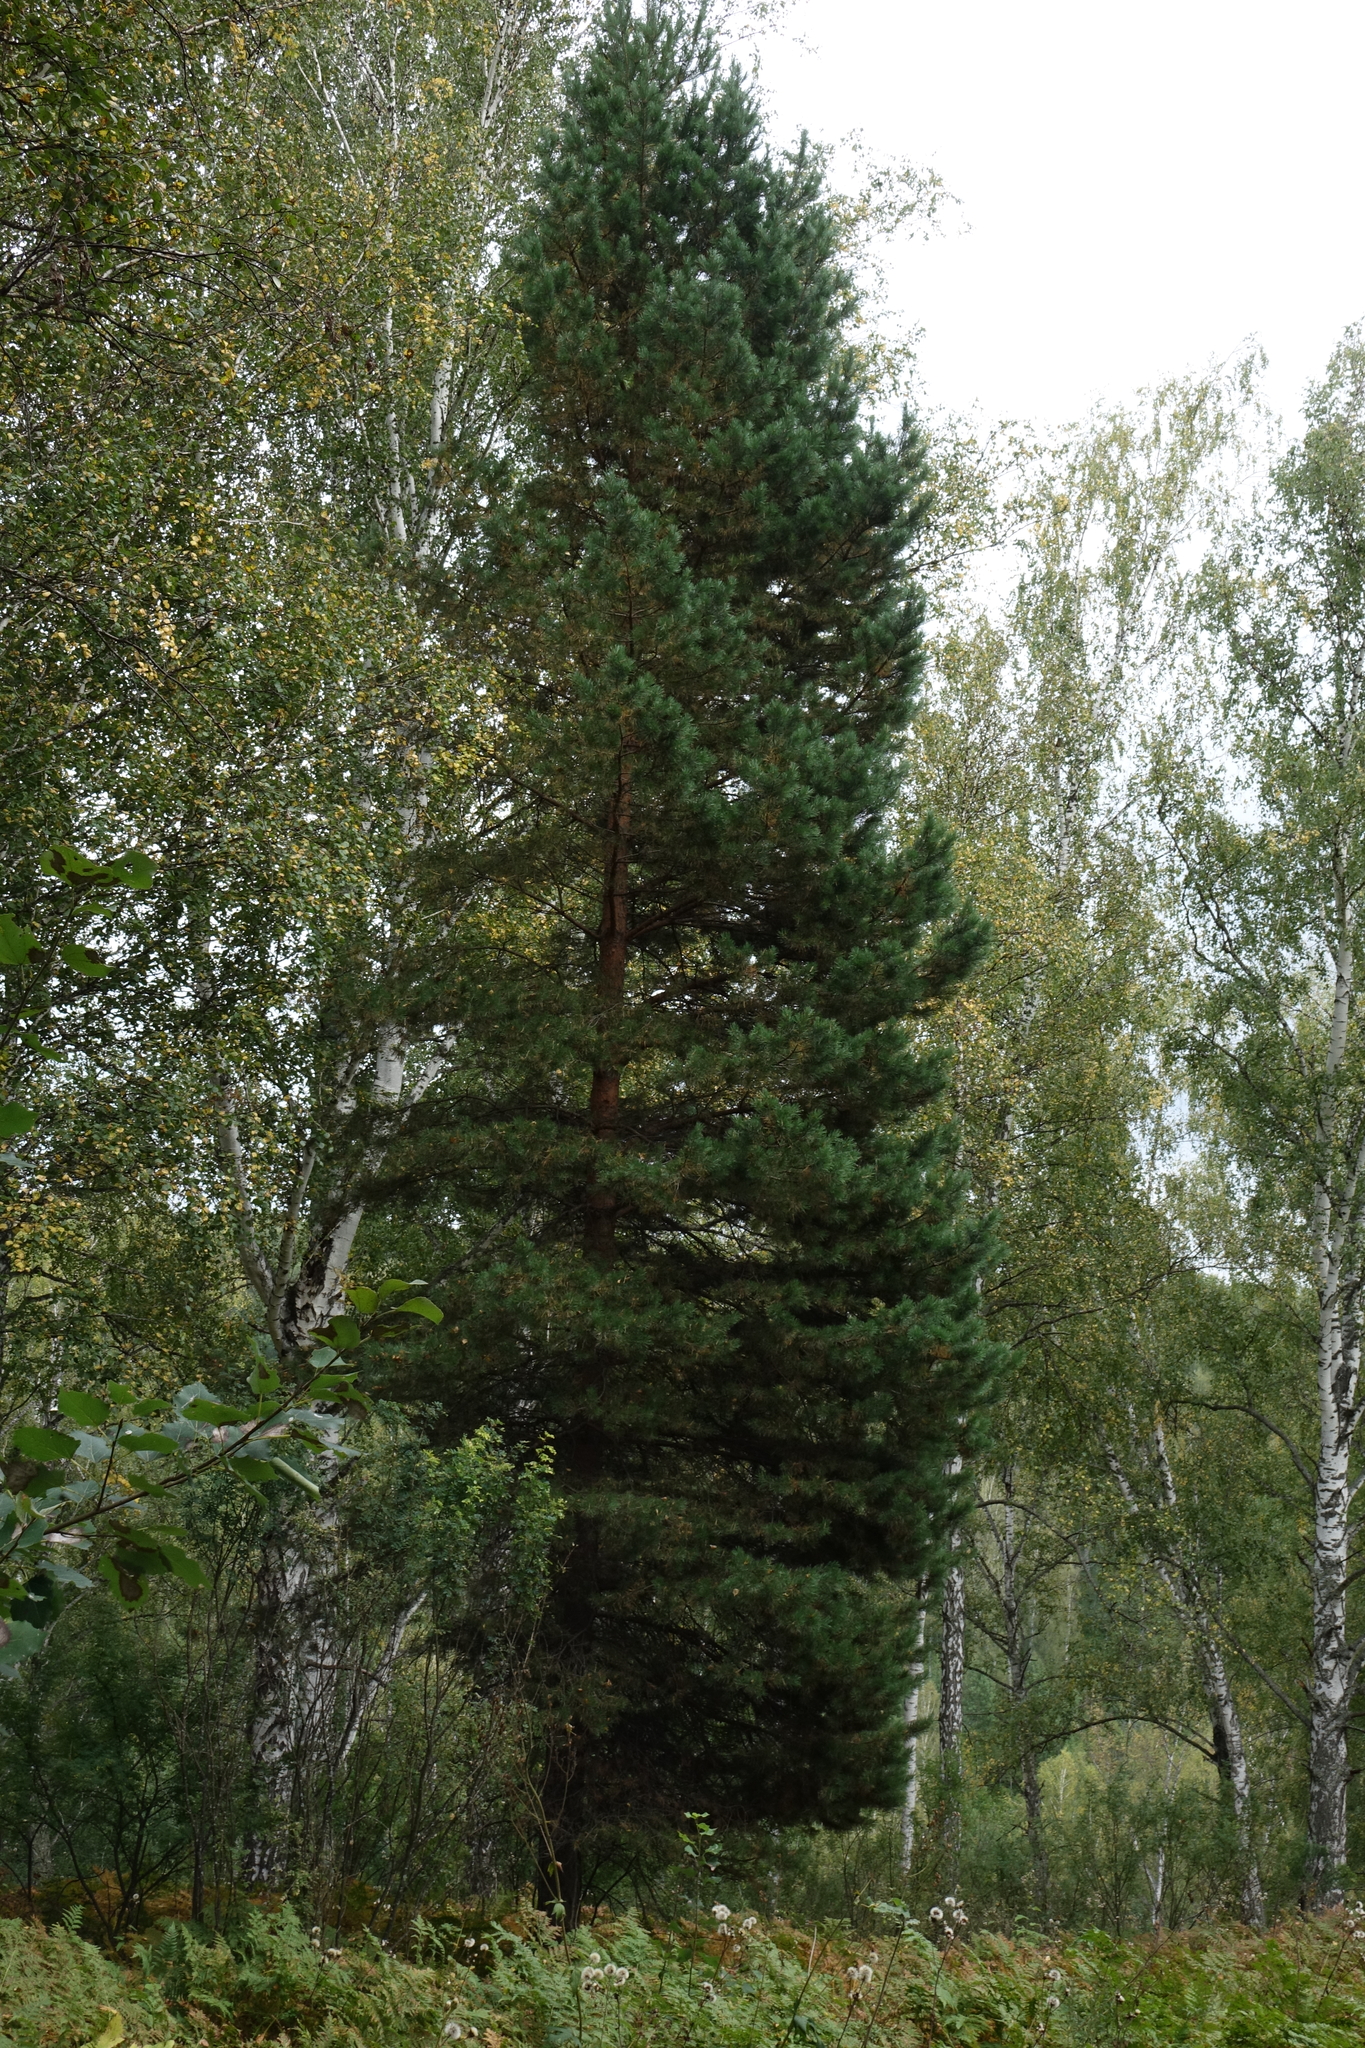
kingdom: Plantae
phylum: Tracheophyta
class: Pinopsida
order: Pinales
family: Pinaceae
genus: Pinus
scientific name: Pinus sylvestris
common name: Scots pine
